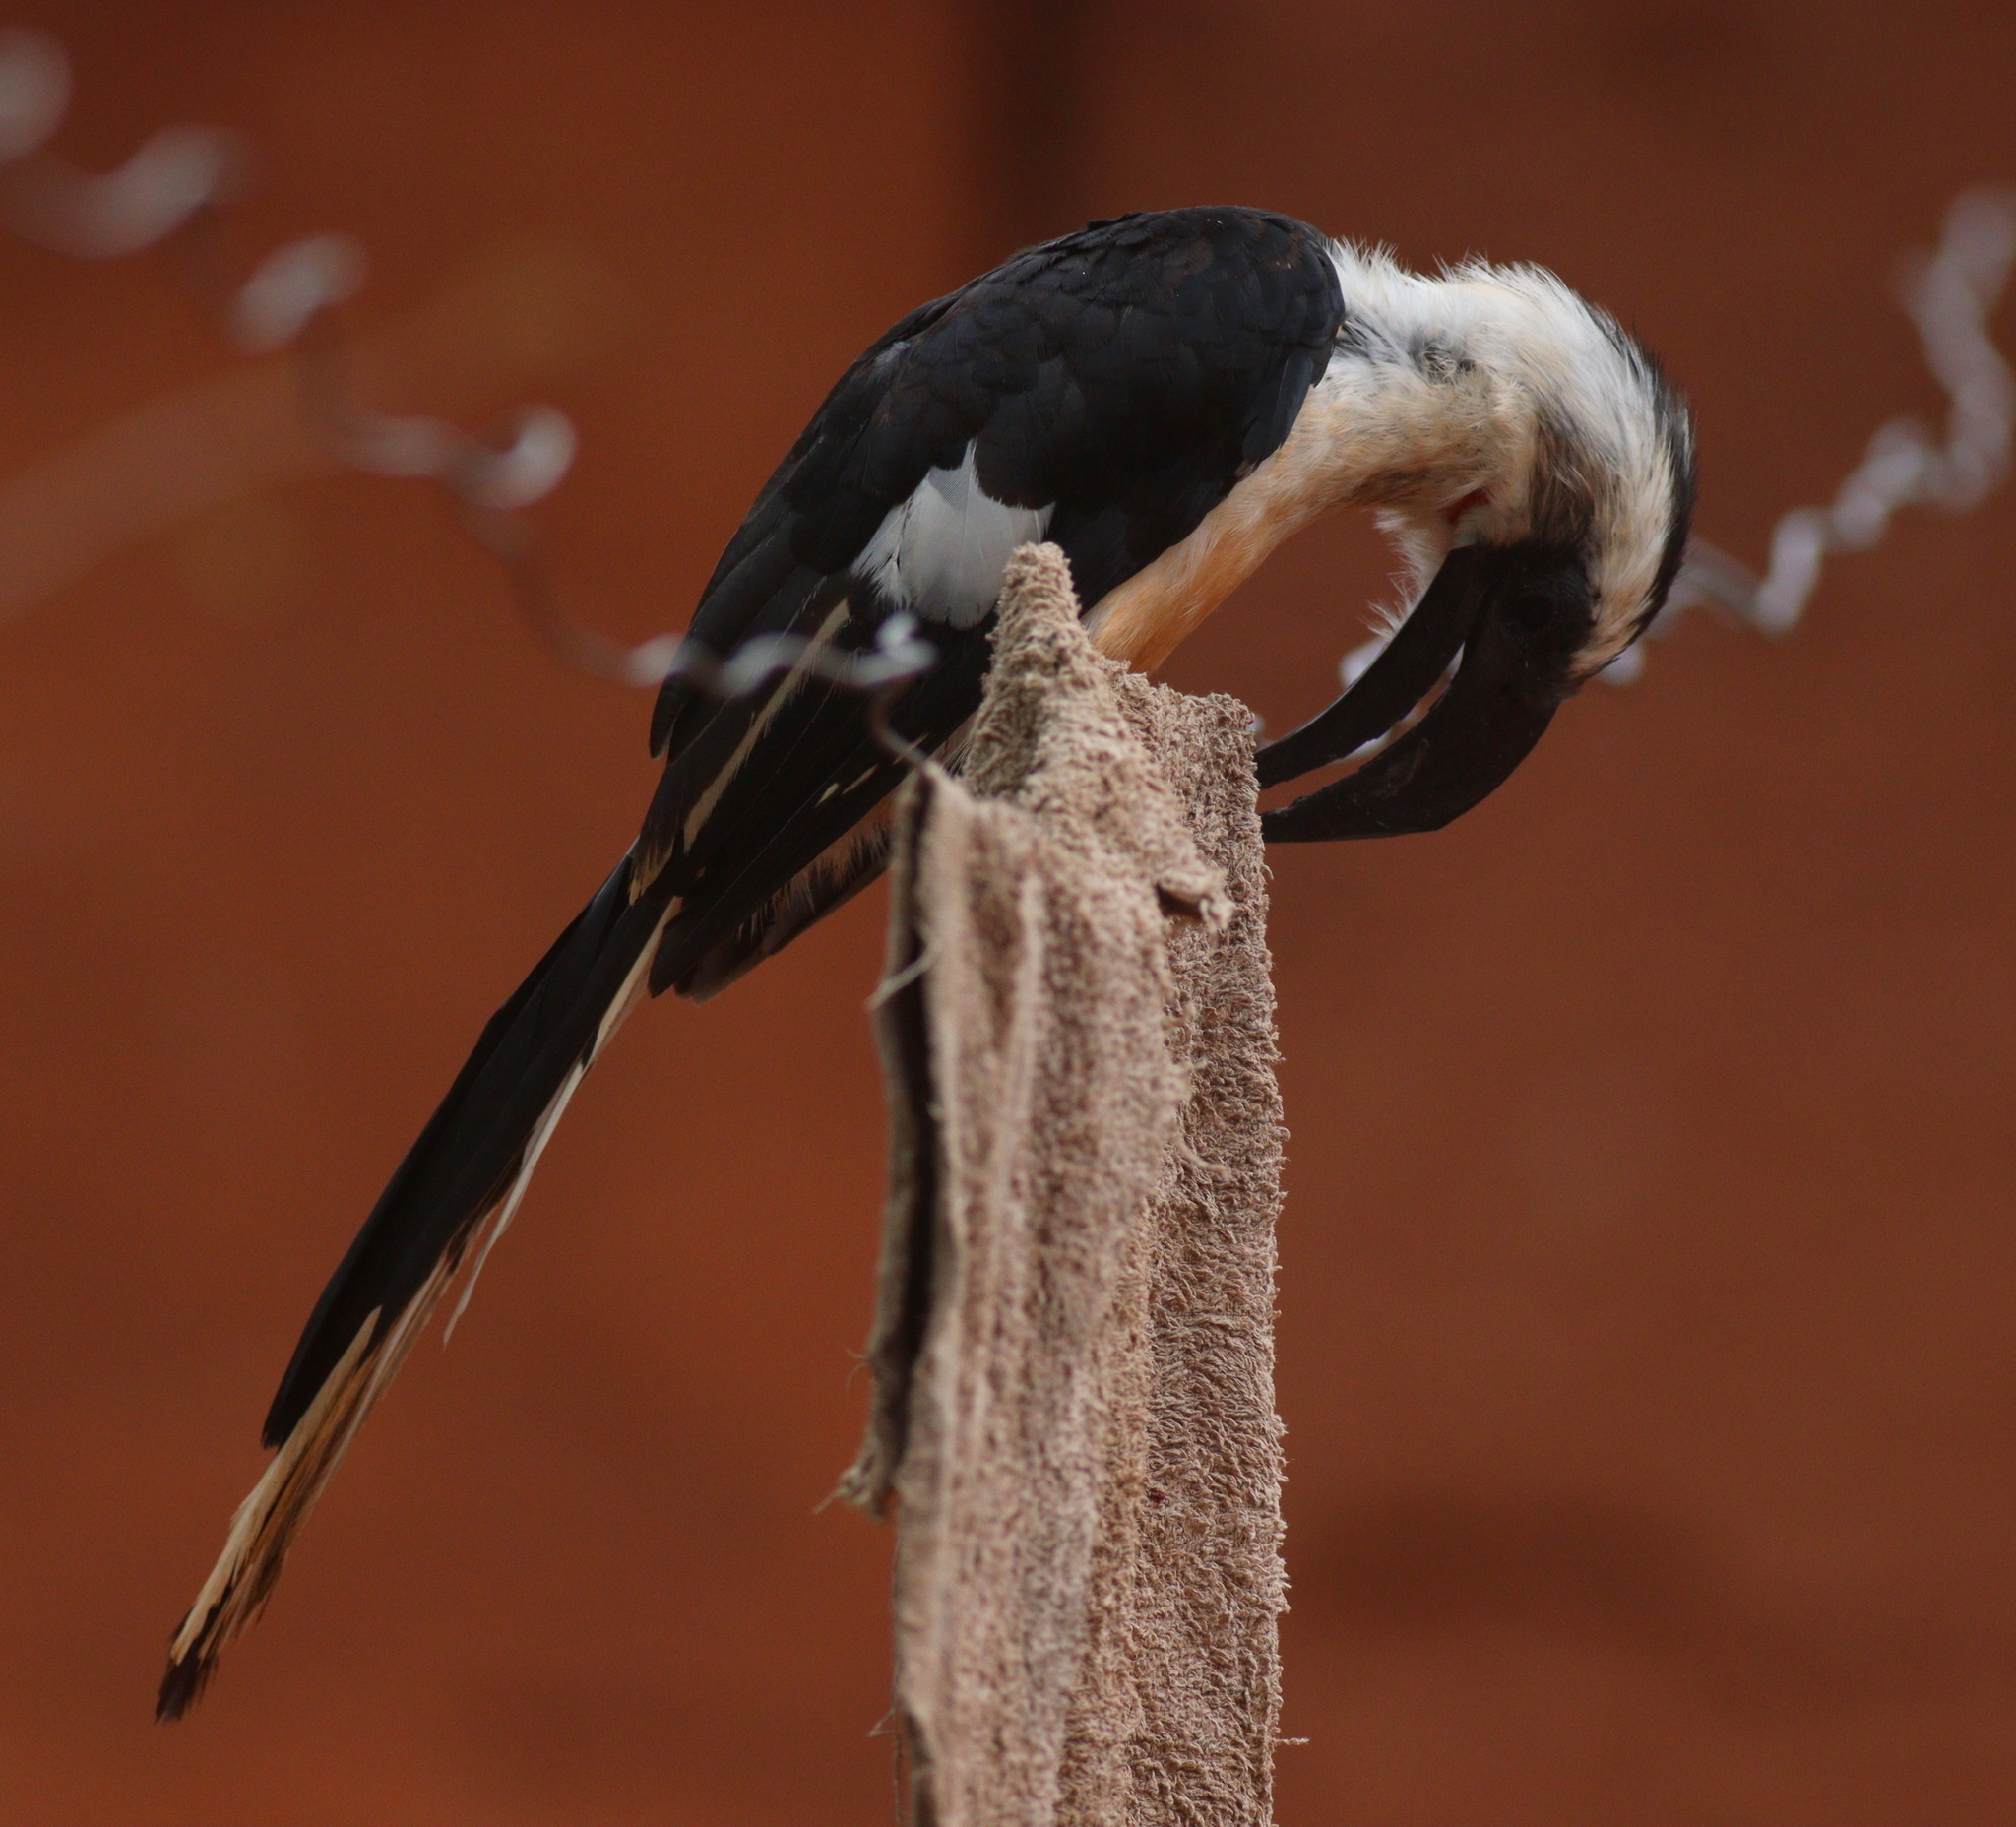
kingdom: Animalia
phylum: Chordata
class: Aves
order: Bucerotiformes
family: Bucerotidae
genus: Tockus
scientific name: Tockus deckeni
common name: Von der decken's hornbill
